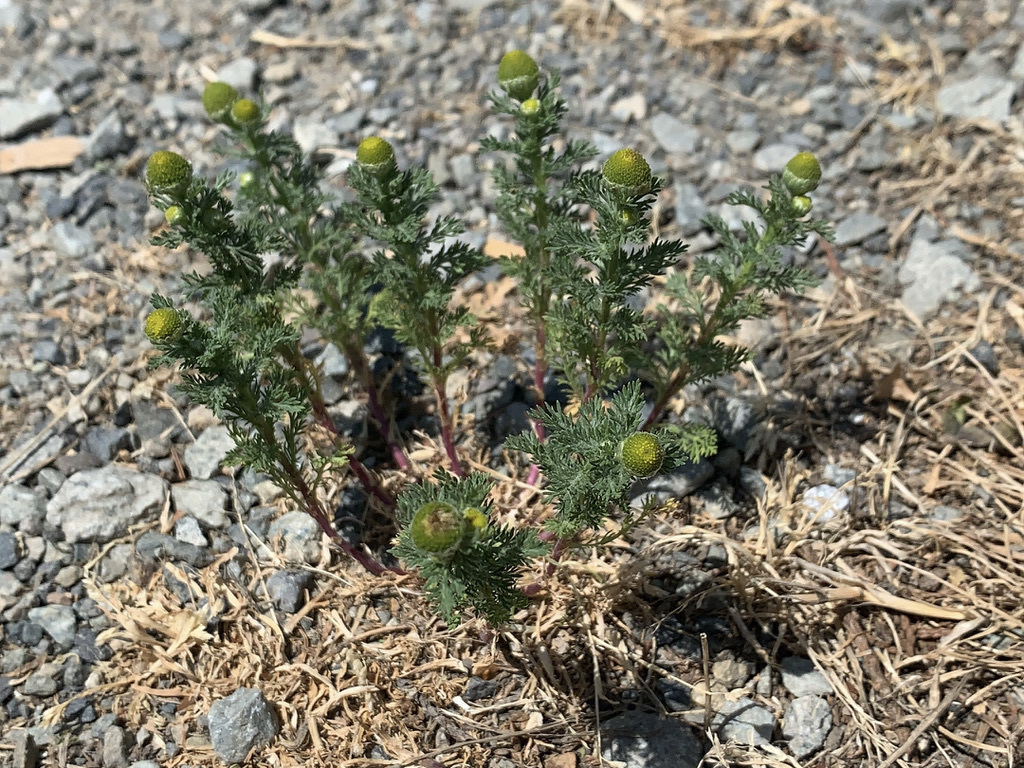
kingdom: Plantae
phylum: Tracheophyta
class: Magnoliopsida
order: Asterales
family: Asteraceae
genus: Matricaria
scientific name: Matricaria discoidea
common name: Disc mayweed
